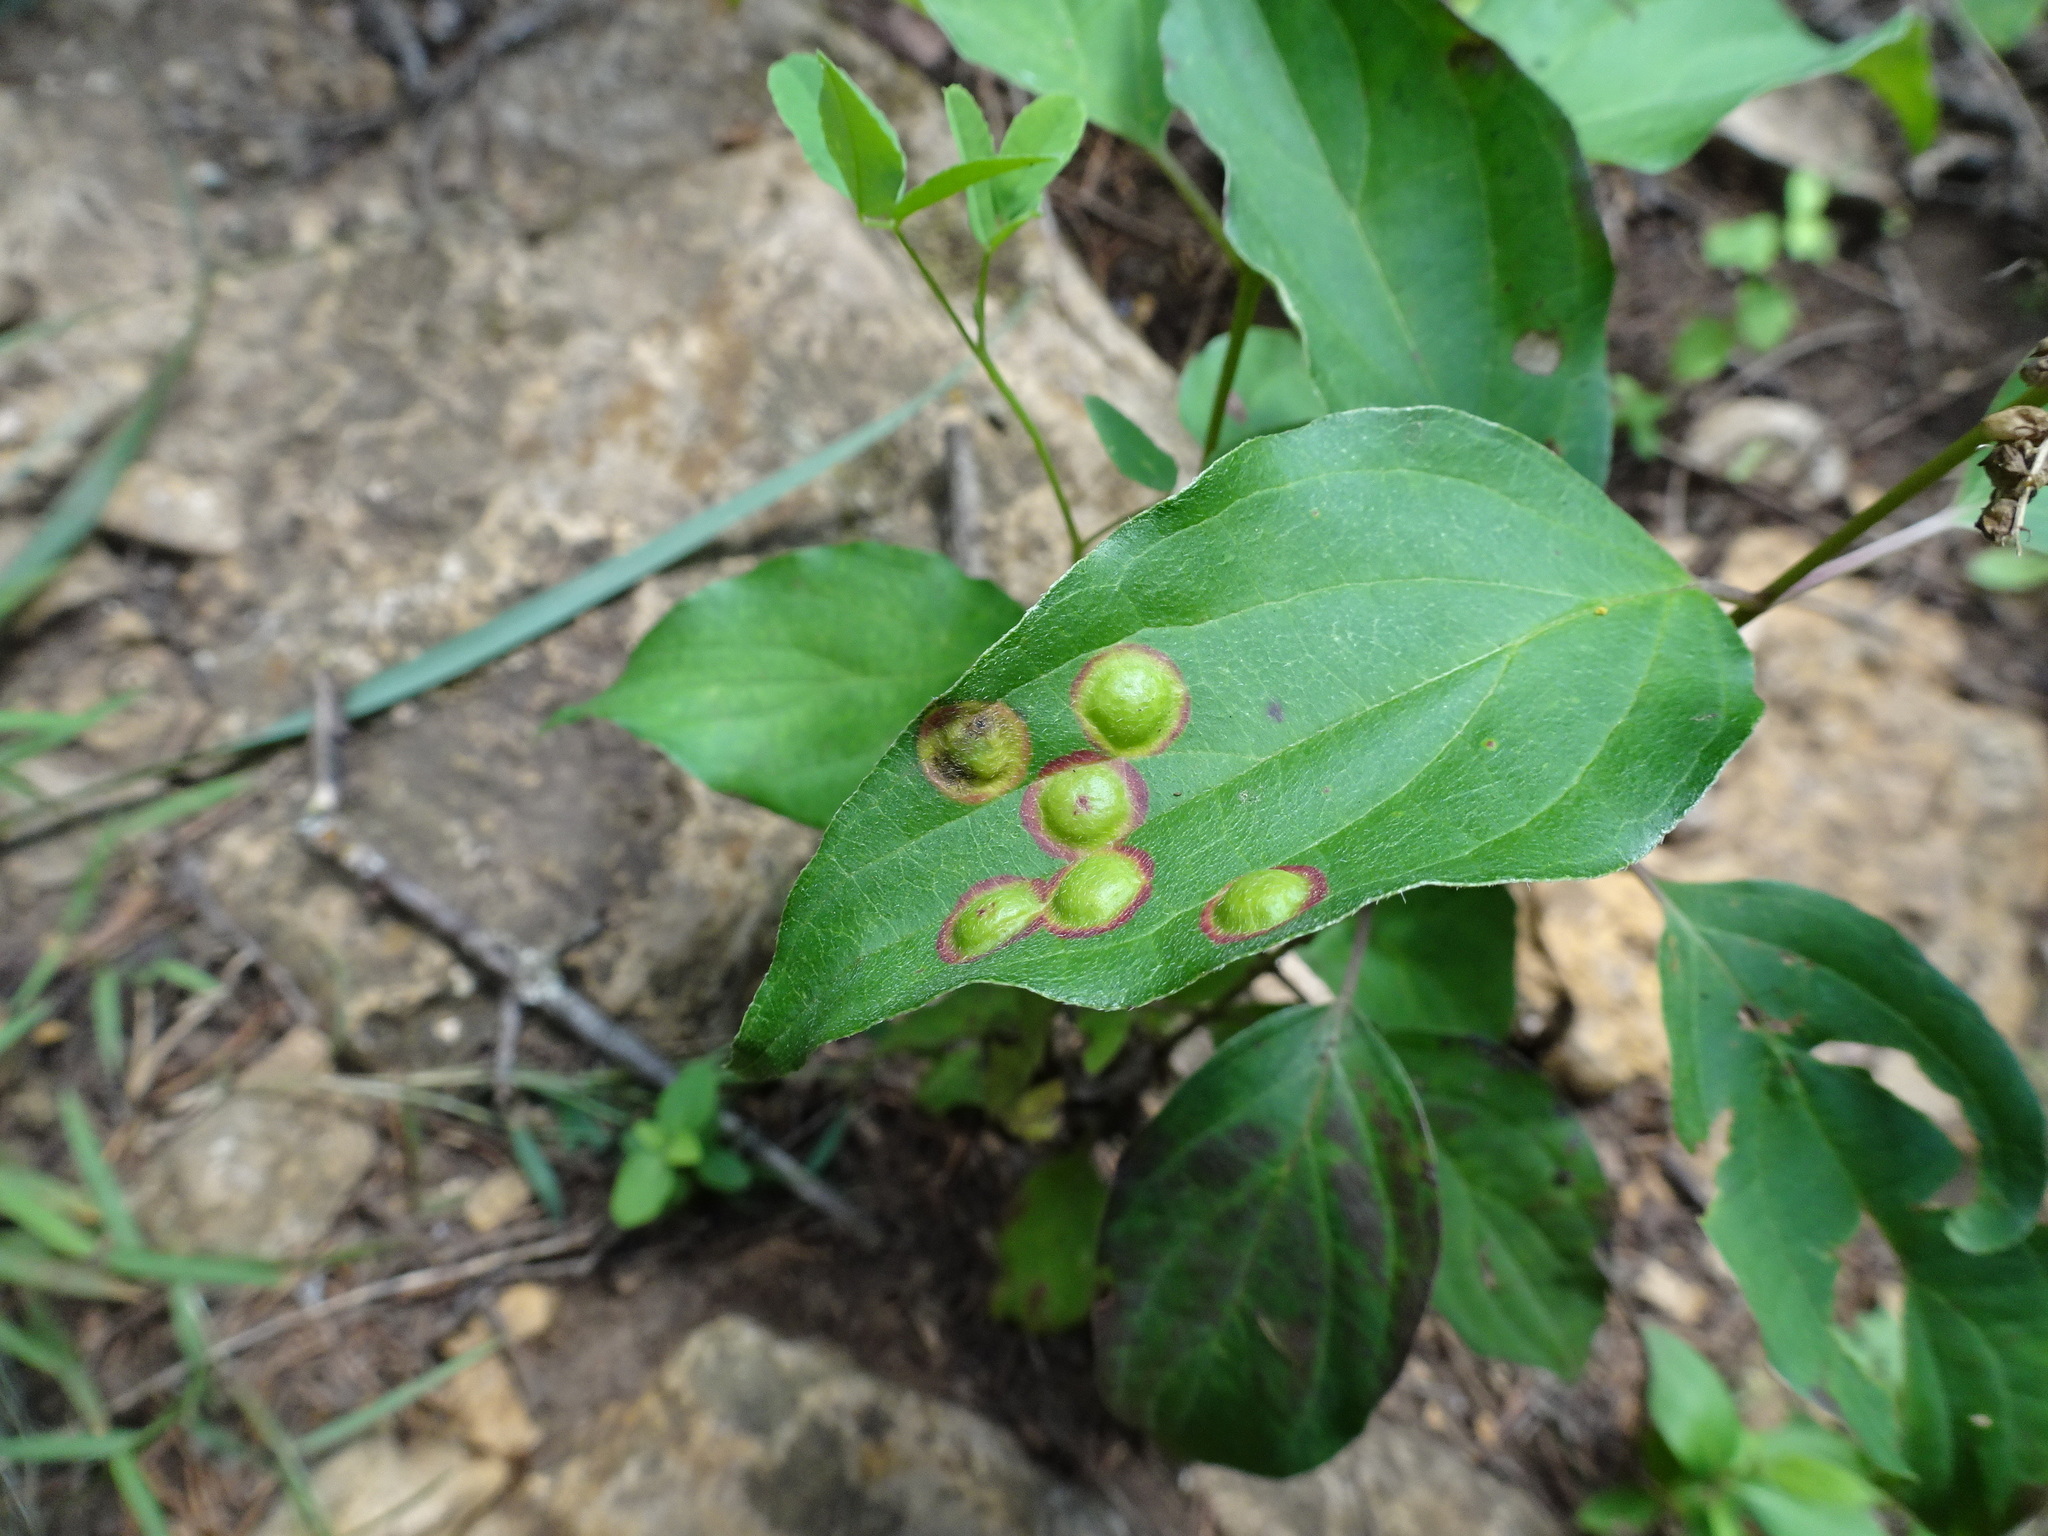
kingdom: Animalia
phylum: Arthropoda
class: Insecta
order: Diptera
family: Cecidomyiidae
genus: Parallelodiplosis
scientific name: Parallelodiplosis subtruncata
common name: Dogwood eyespot gall midge
